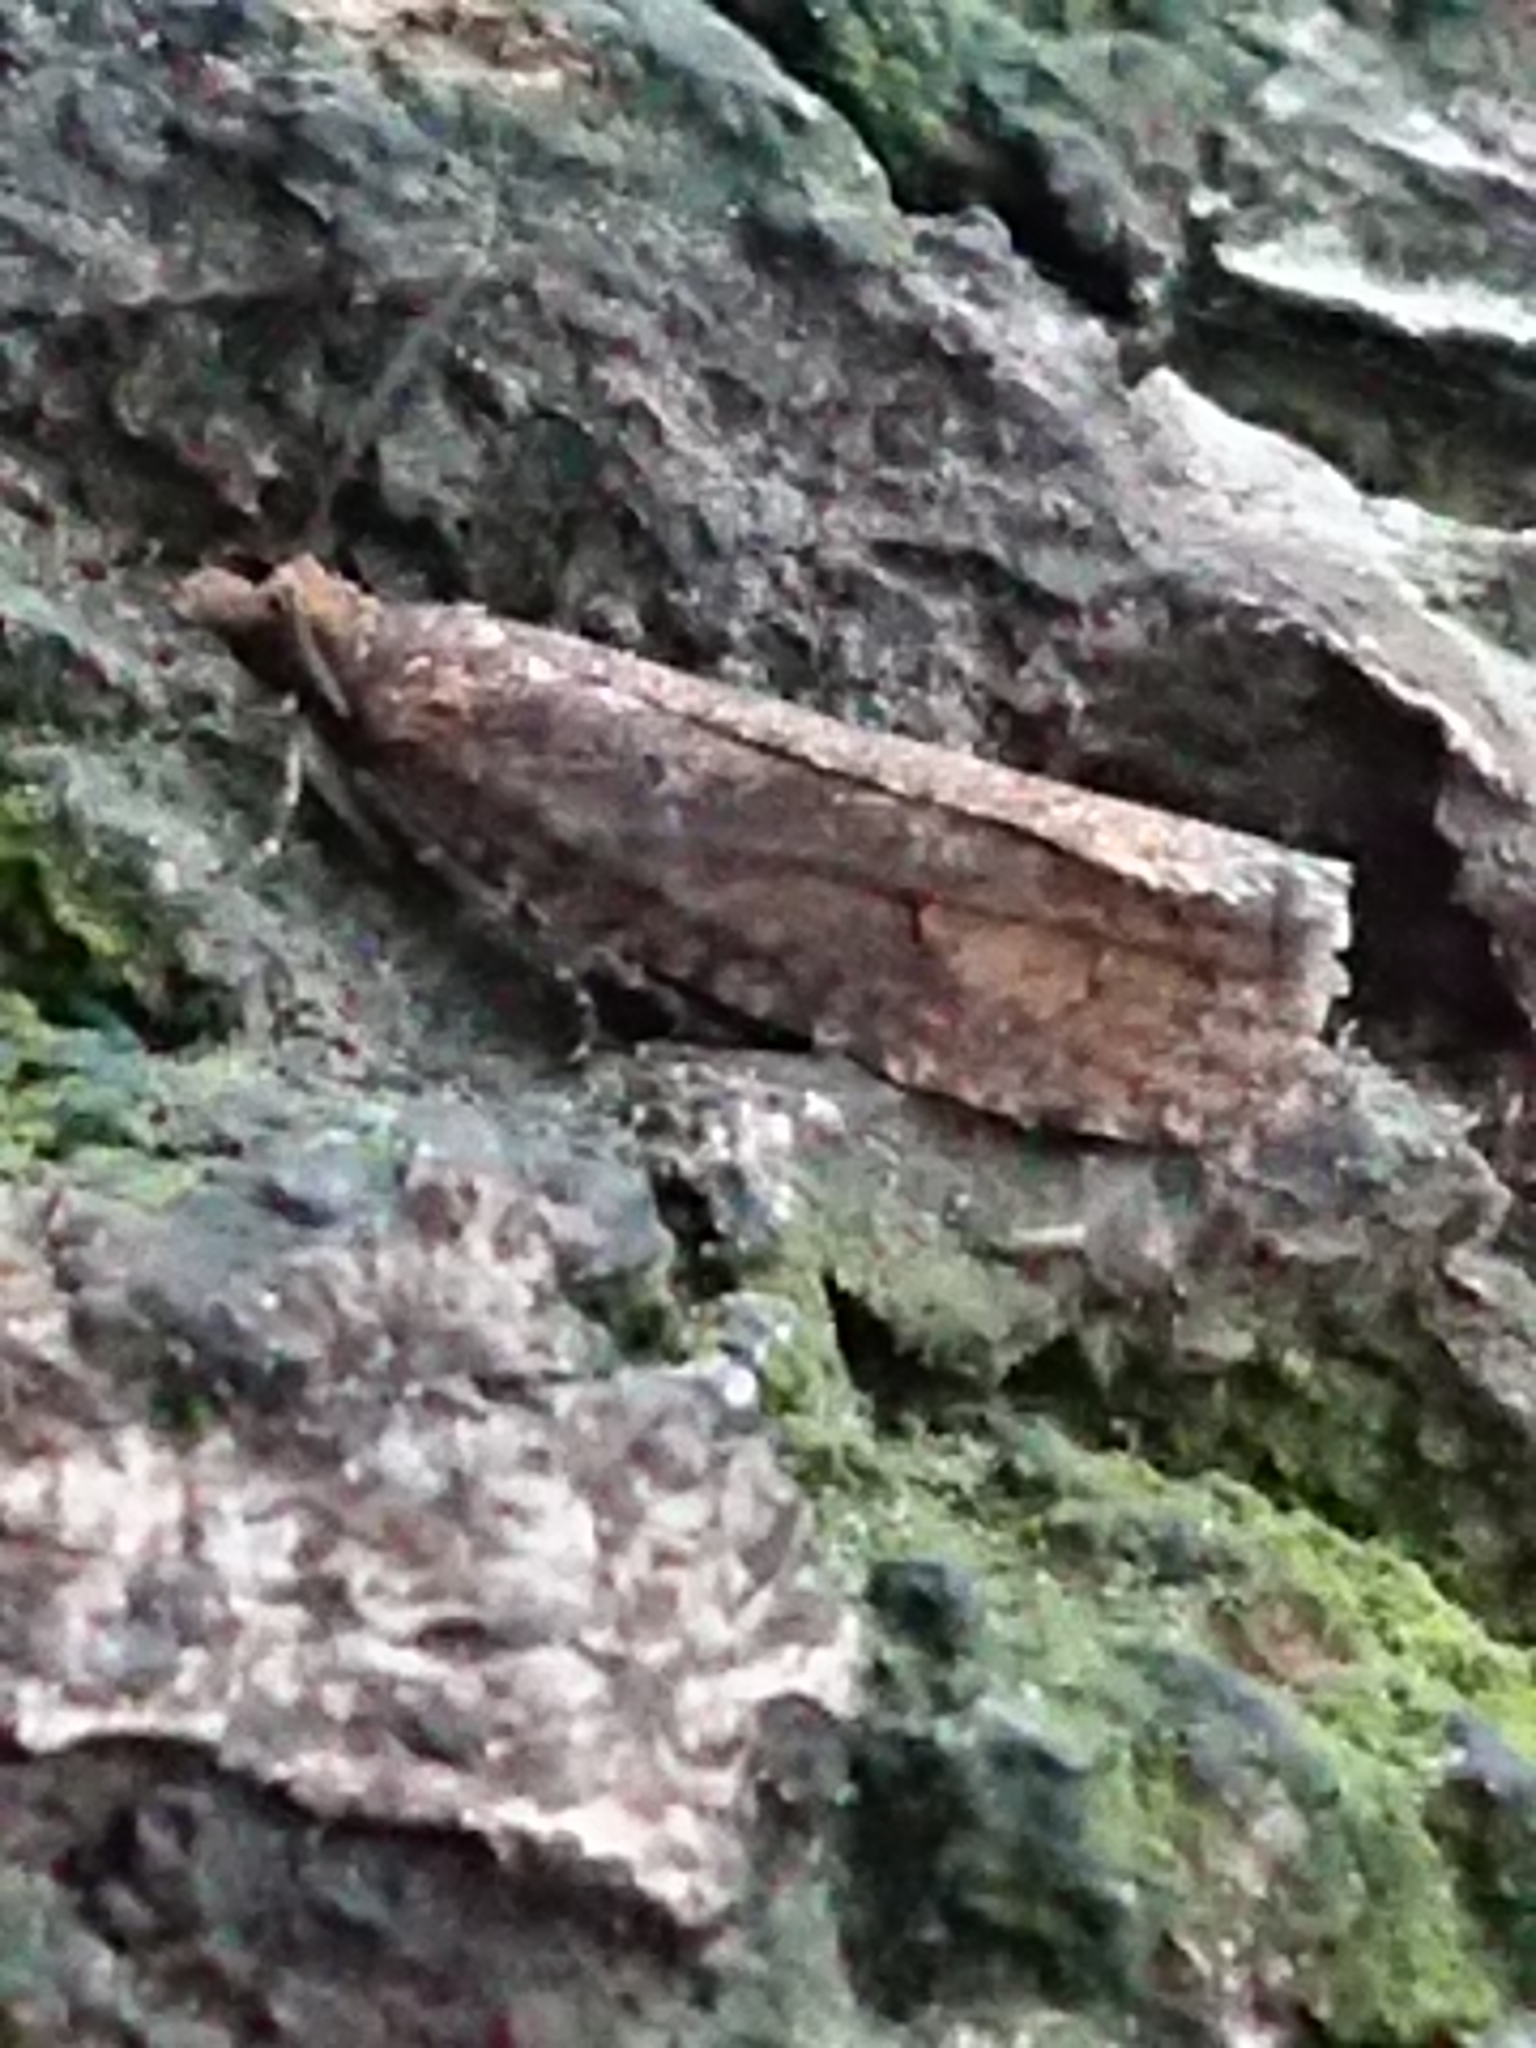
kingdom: Animalia
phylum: Arthropoda
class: Insecta
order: Lepidoptera
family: Tortricidae
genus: Cryptaspasma
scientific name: Cryptaspasma querula
